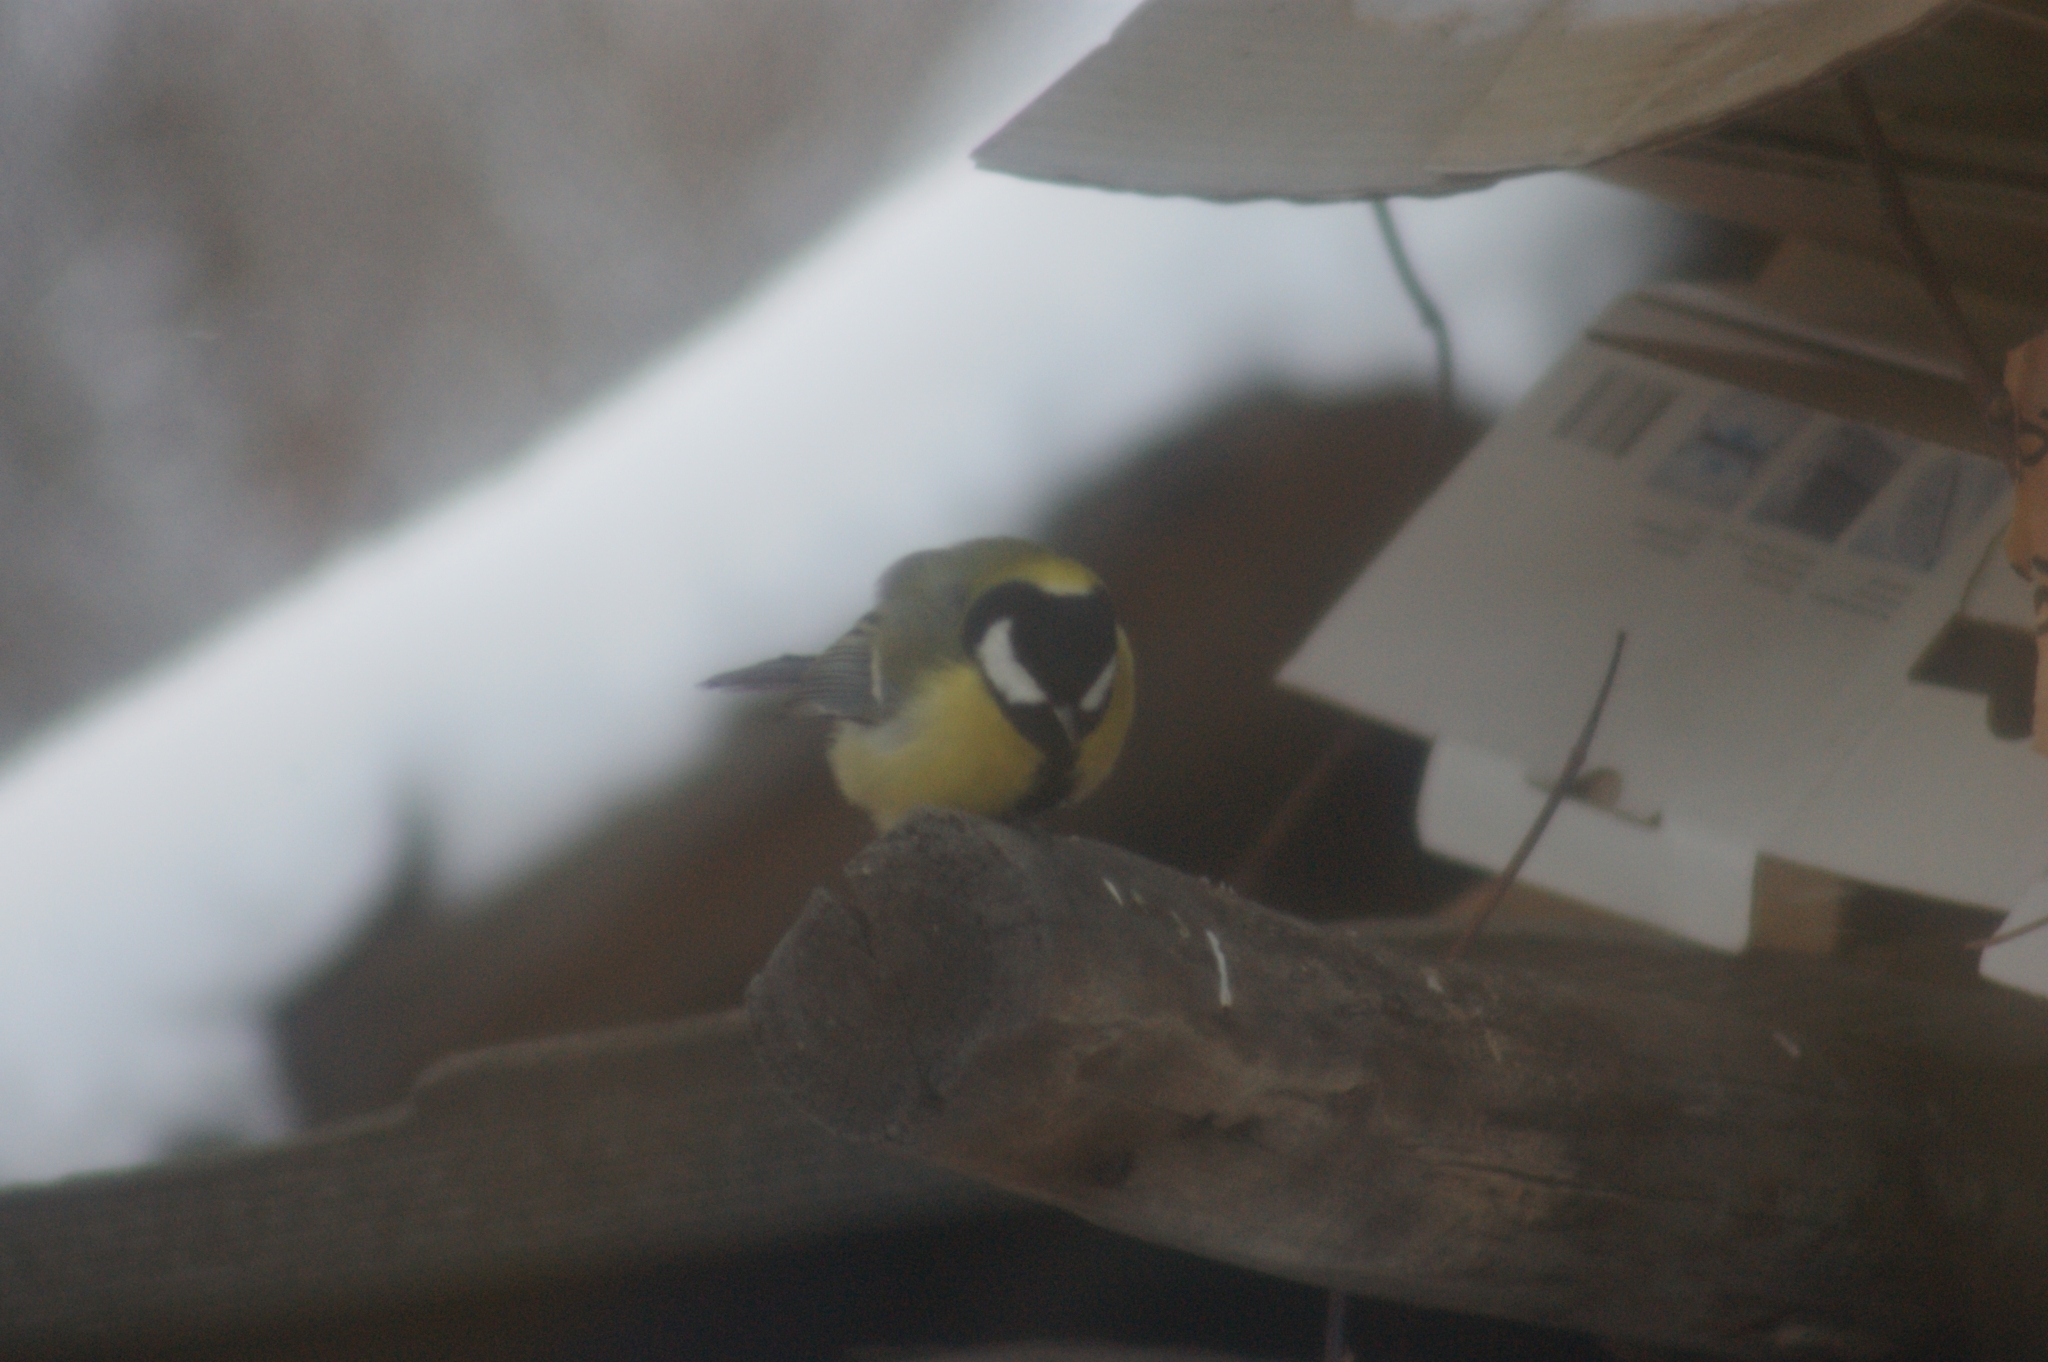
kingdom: Animalia
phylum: Chordata
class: Aves
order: Passeriformes
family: Paridae
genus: Parus
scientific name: Parus major
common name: Great tit
